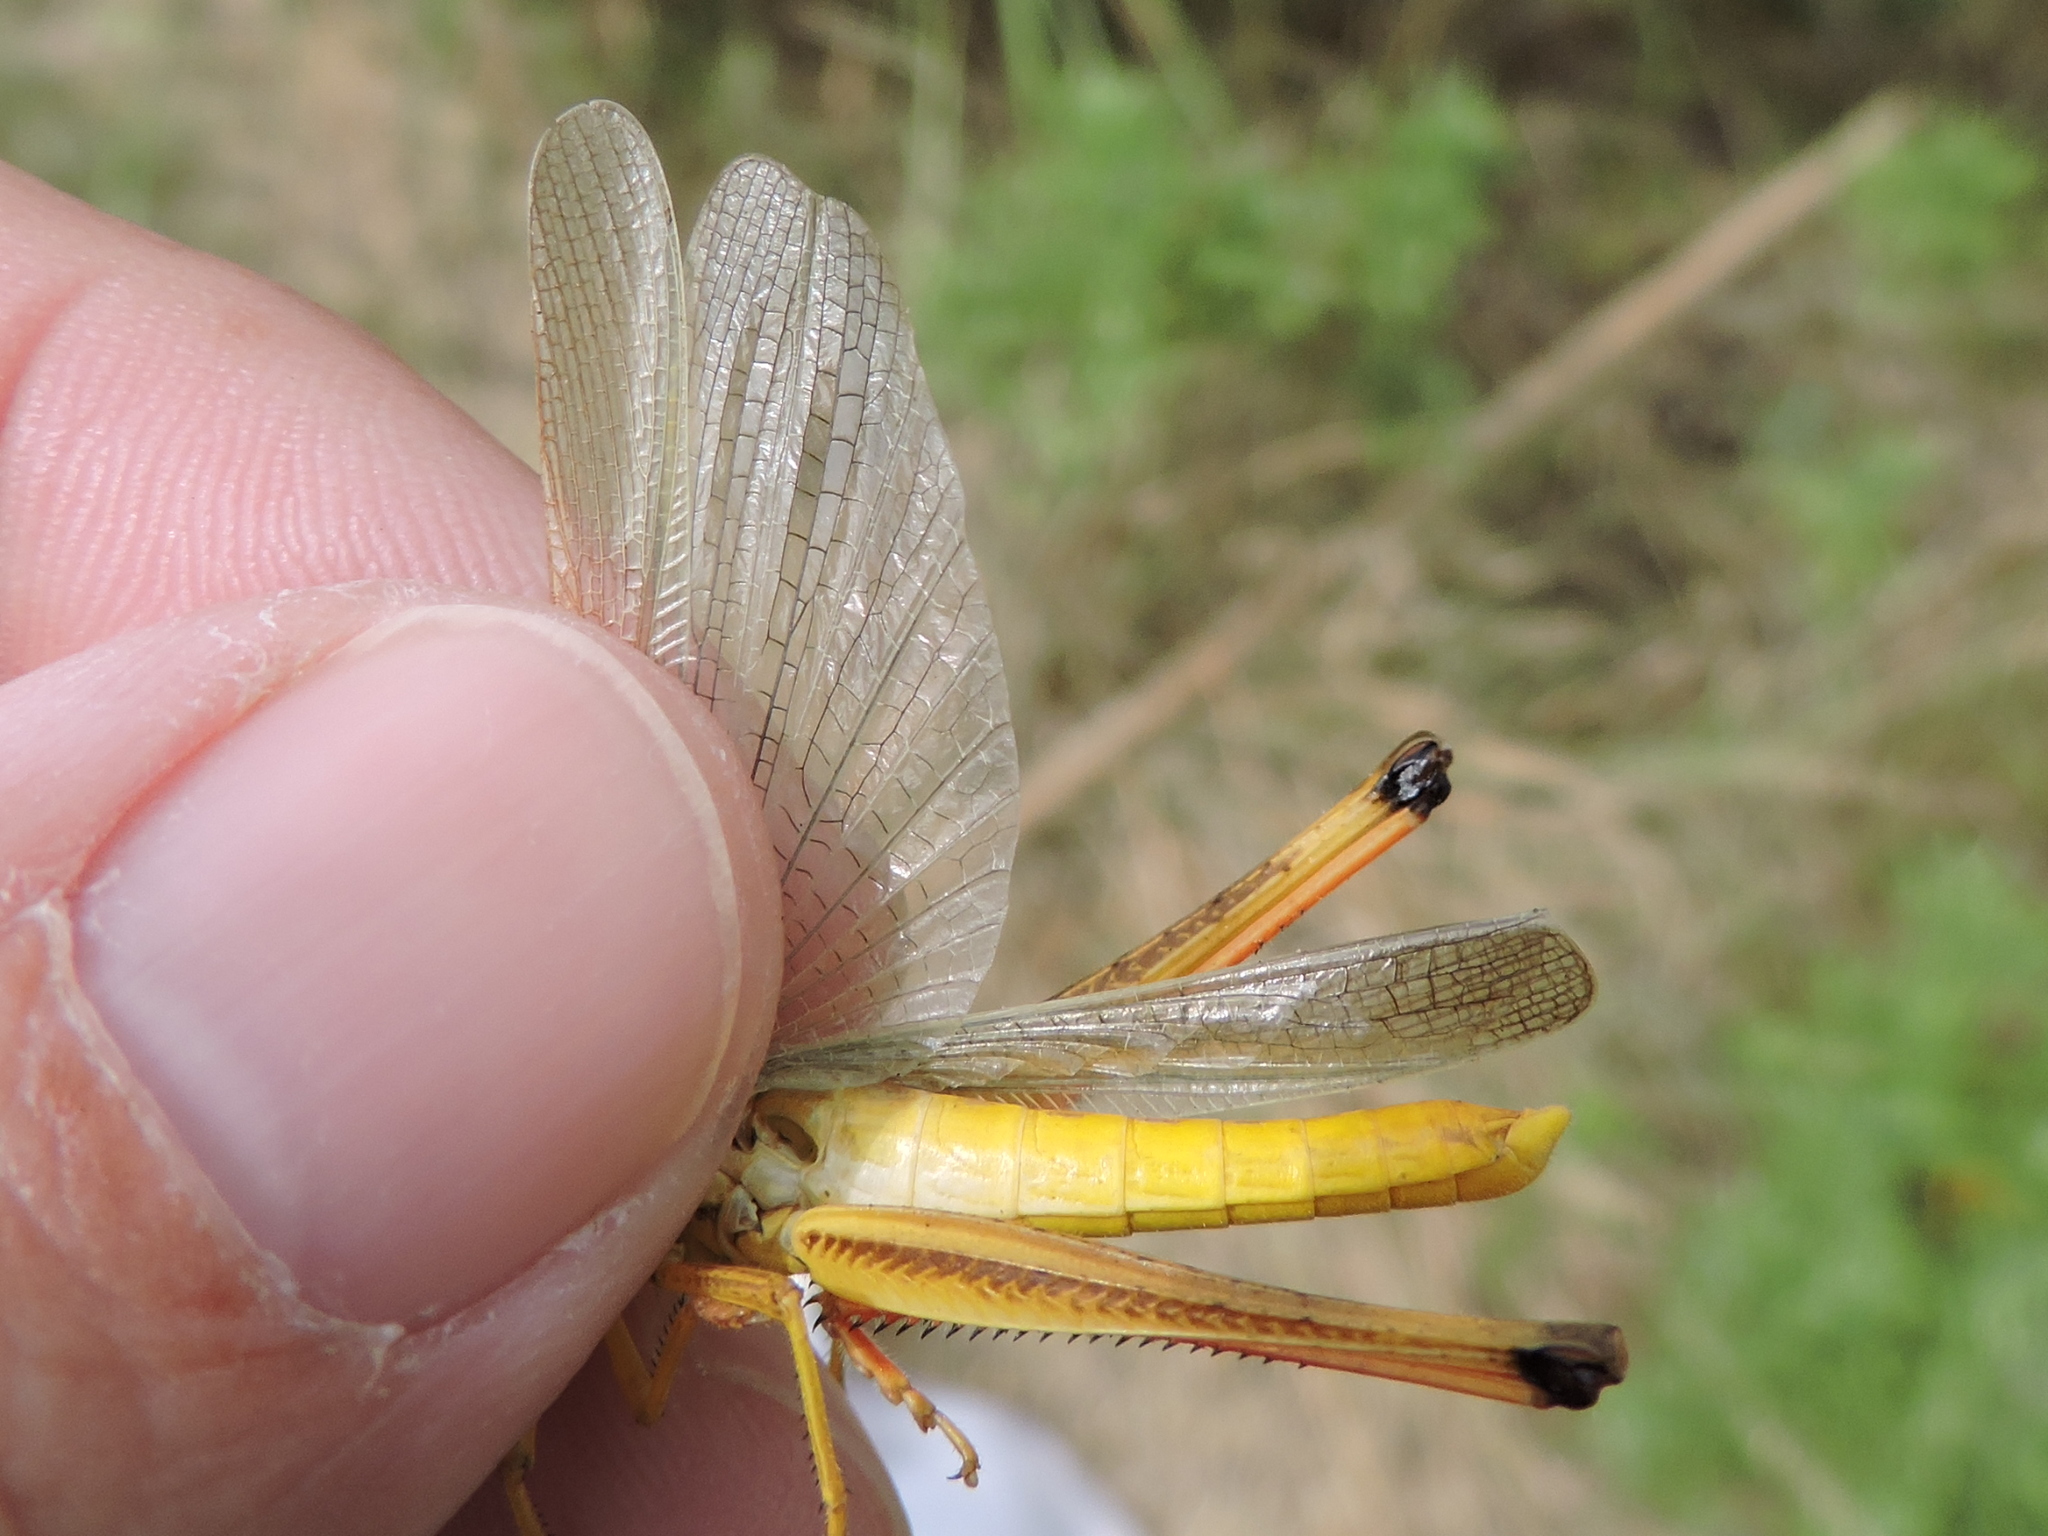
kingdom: Animalia
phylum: Arthropoda
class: Insecta
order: Orthoptera
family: Acrididae
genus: Mermiria
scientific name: Mermiria bivittata
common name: Two-striped mermiria grasshopper
